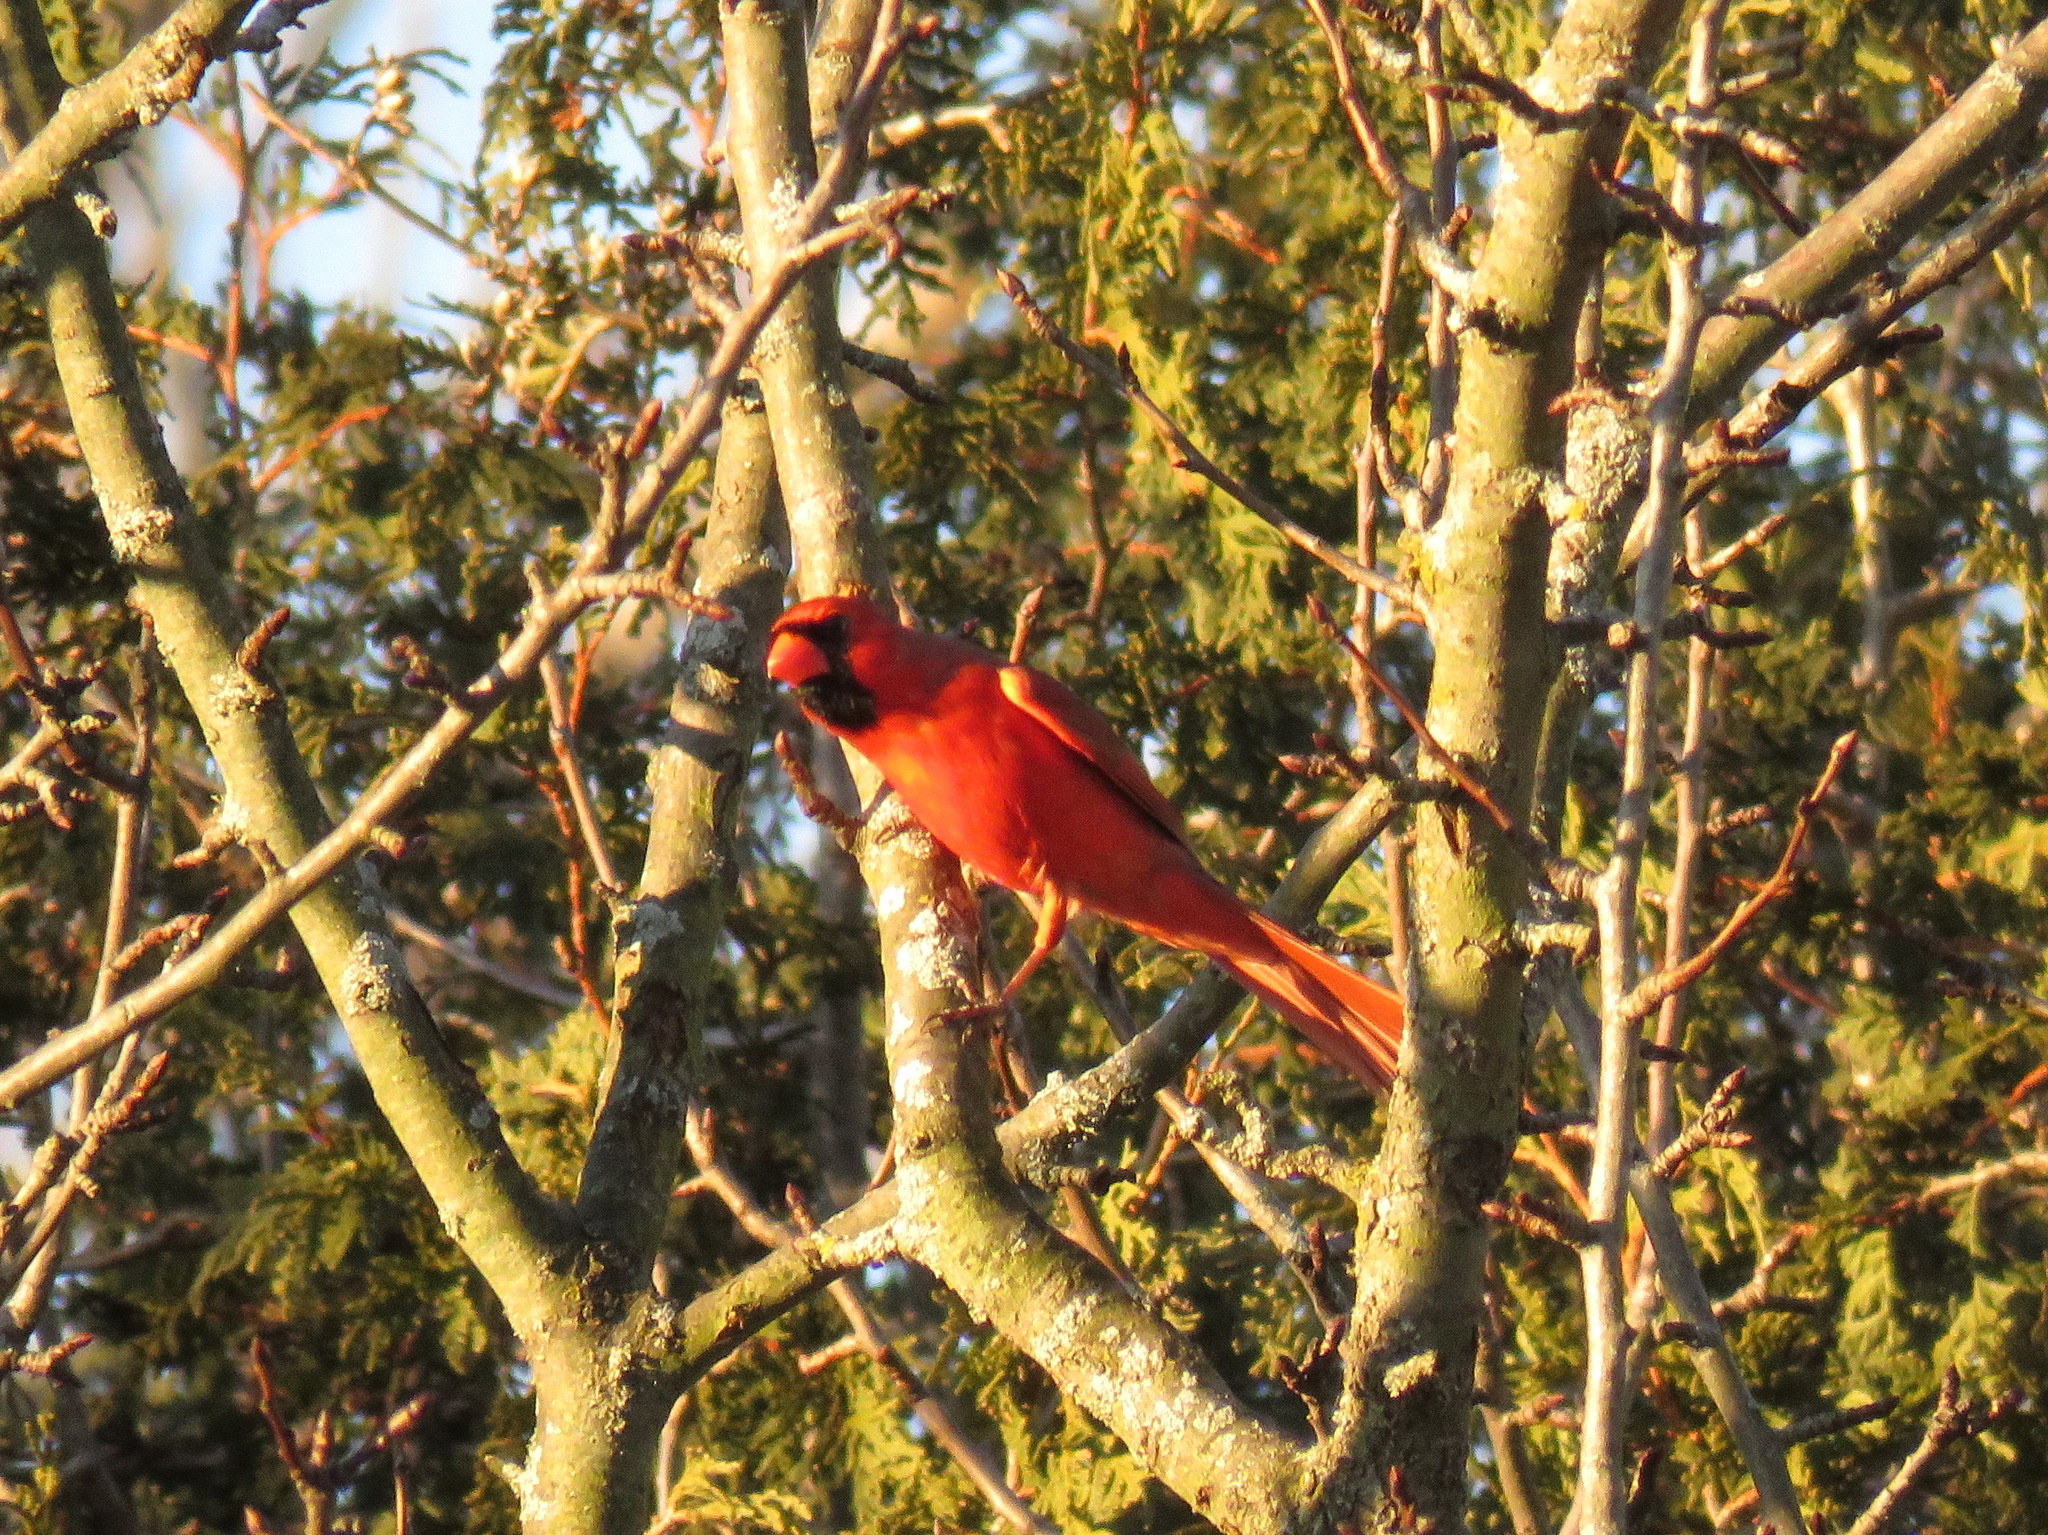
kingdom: Animalia
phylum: Chordata
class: Aves
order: Passeriformes
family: Cardinalidae
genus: Cardinalis
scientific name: Cardinalis cardinalis
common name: Northern cardinal
